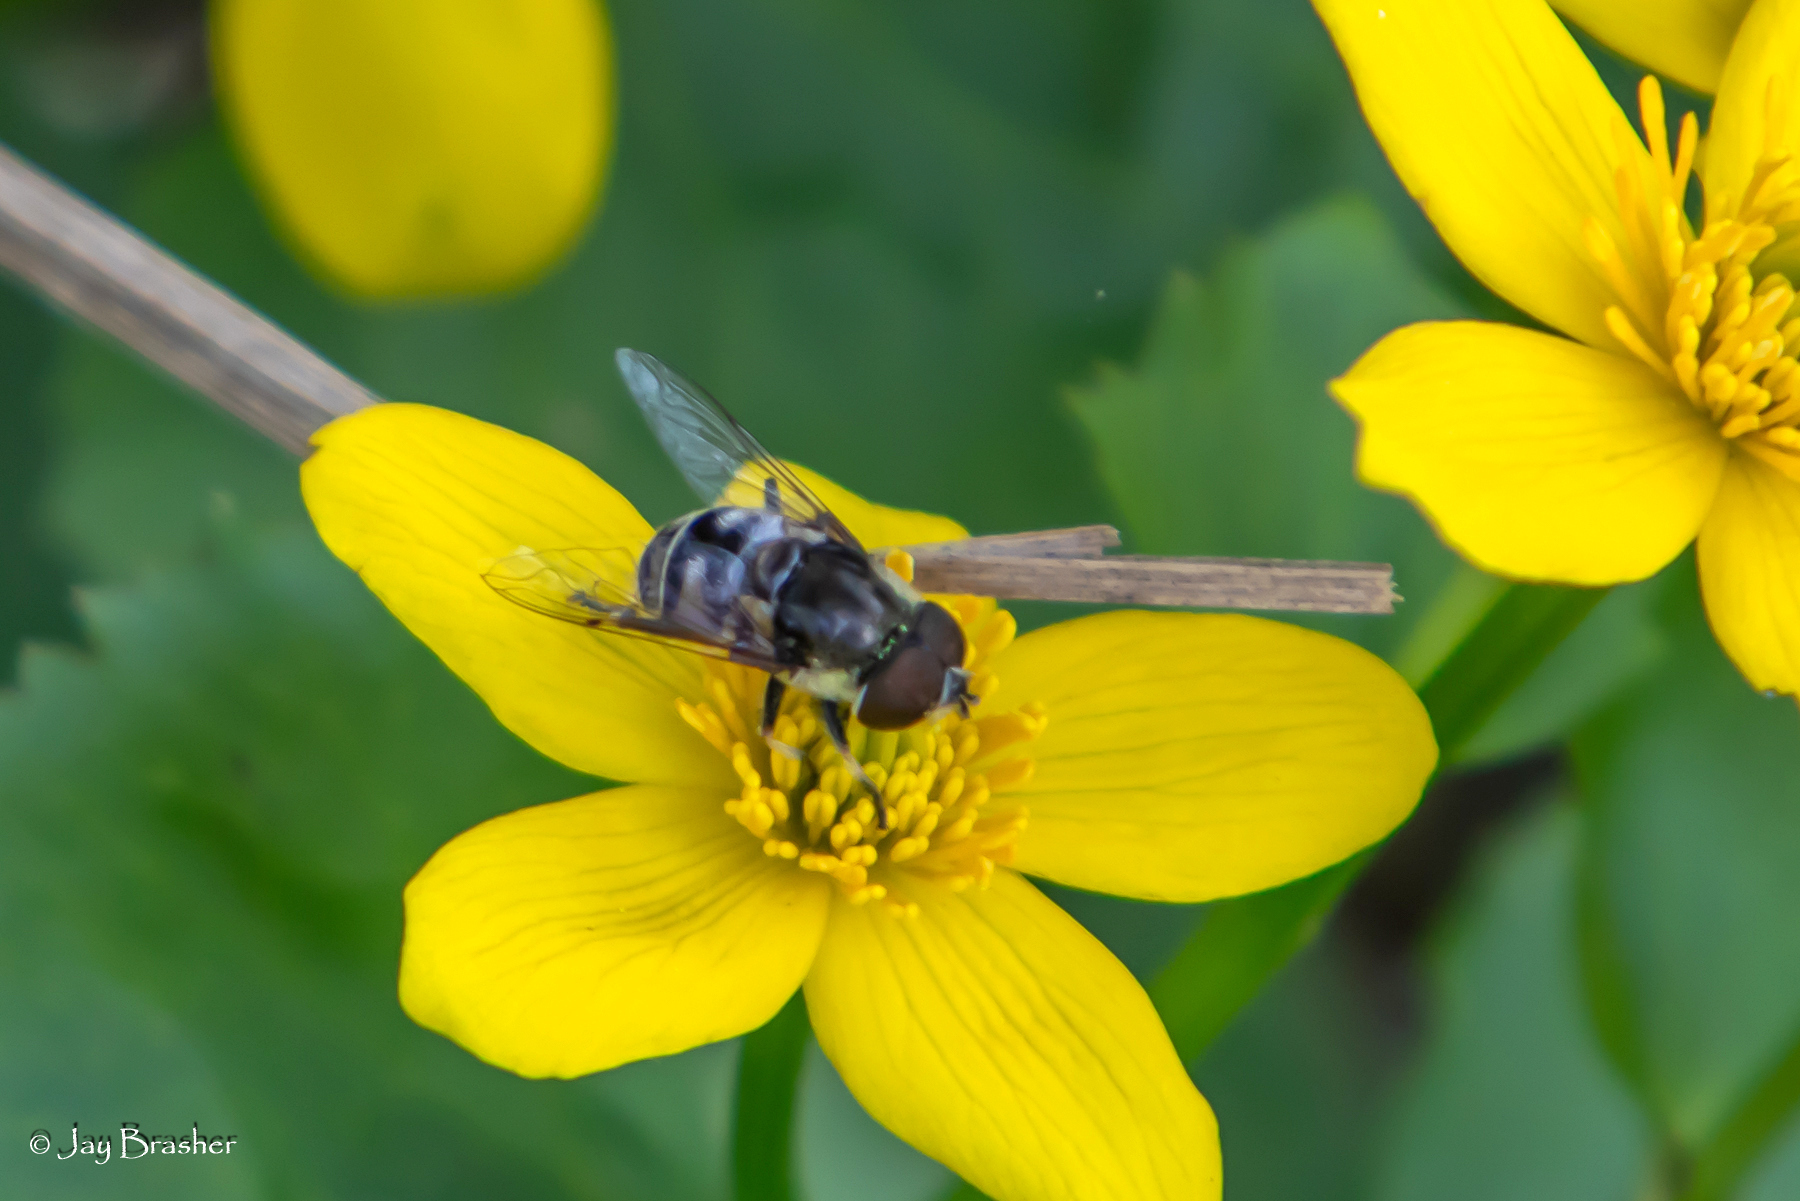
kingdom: Animalia
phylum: Arthropoda
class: Insecta
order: Diptera
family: Syrphidae
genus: Eristalis
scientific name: Eristalis dimidiata
